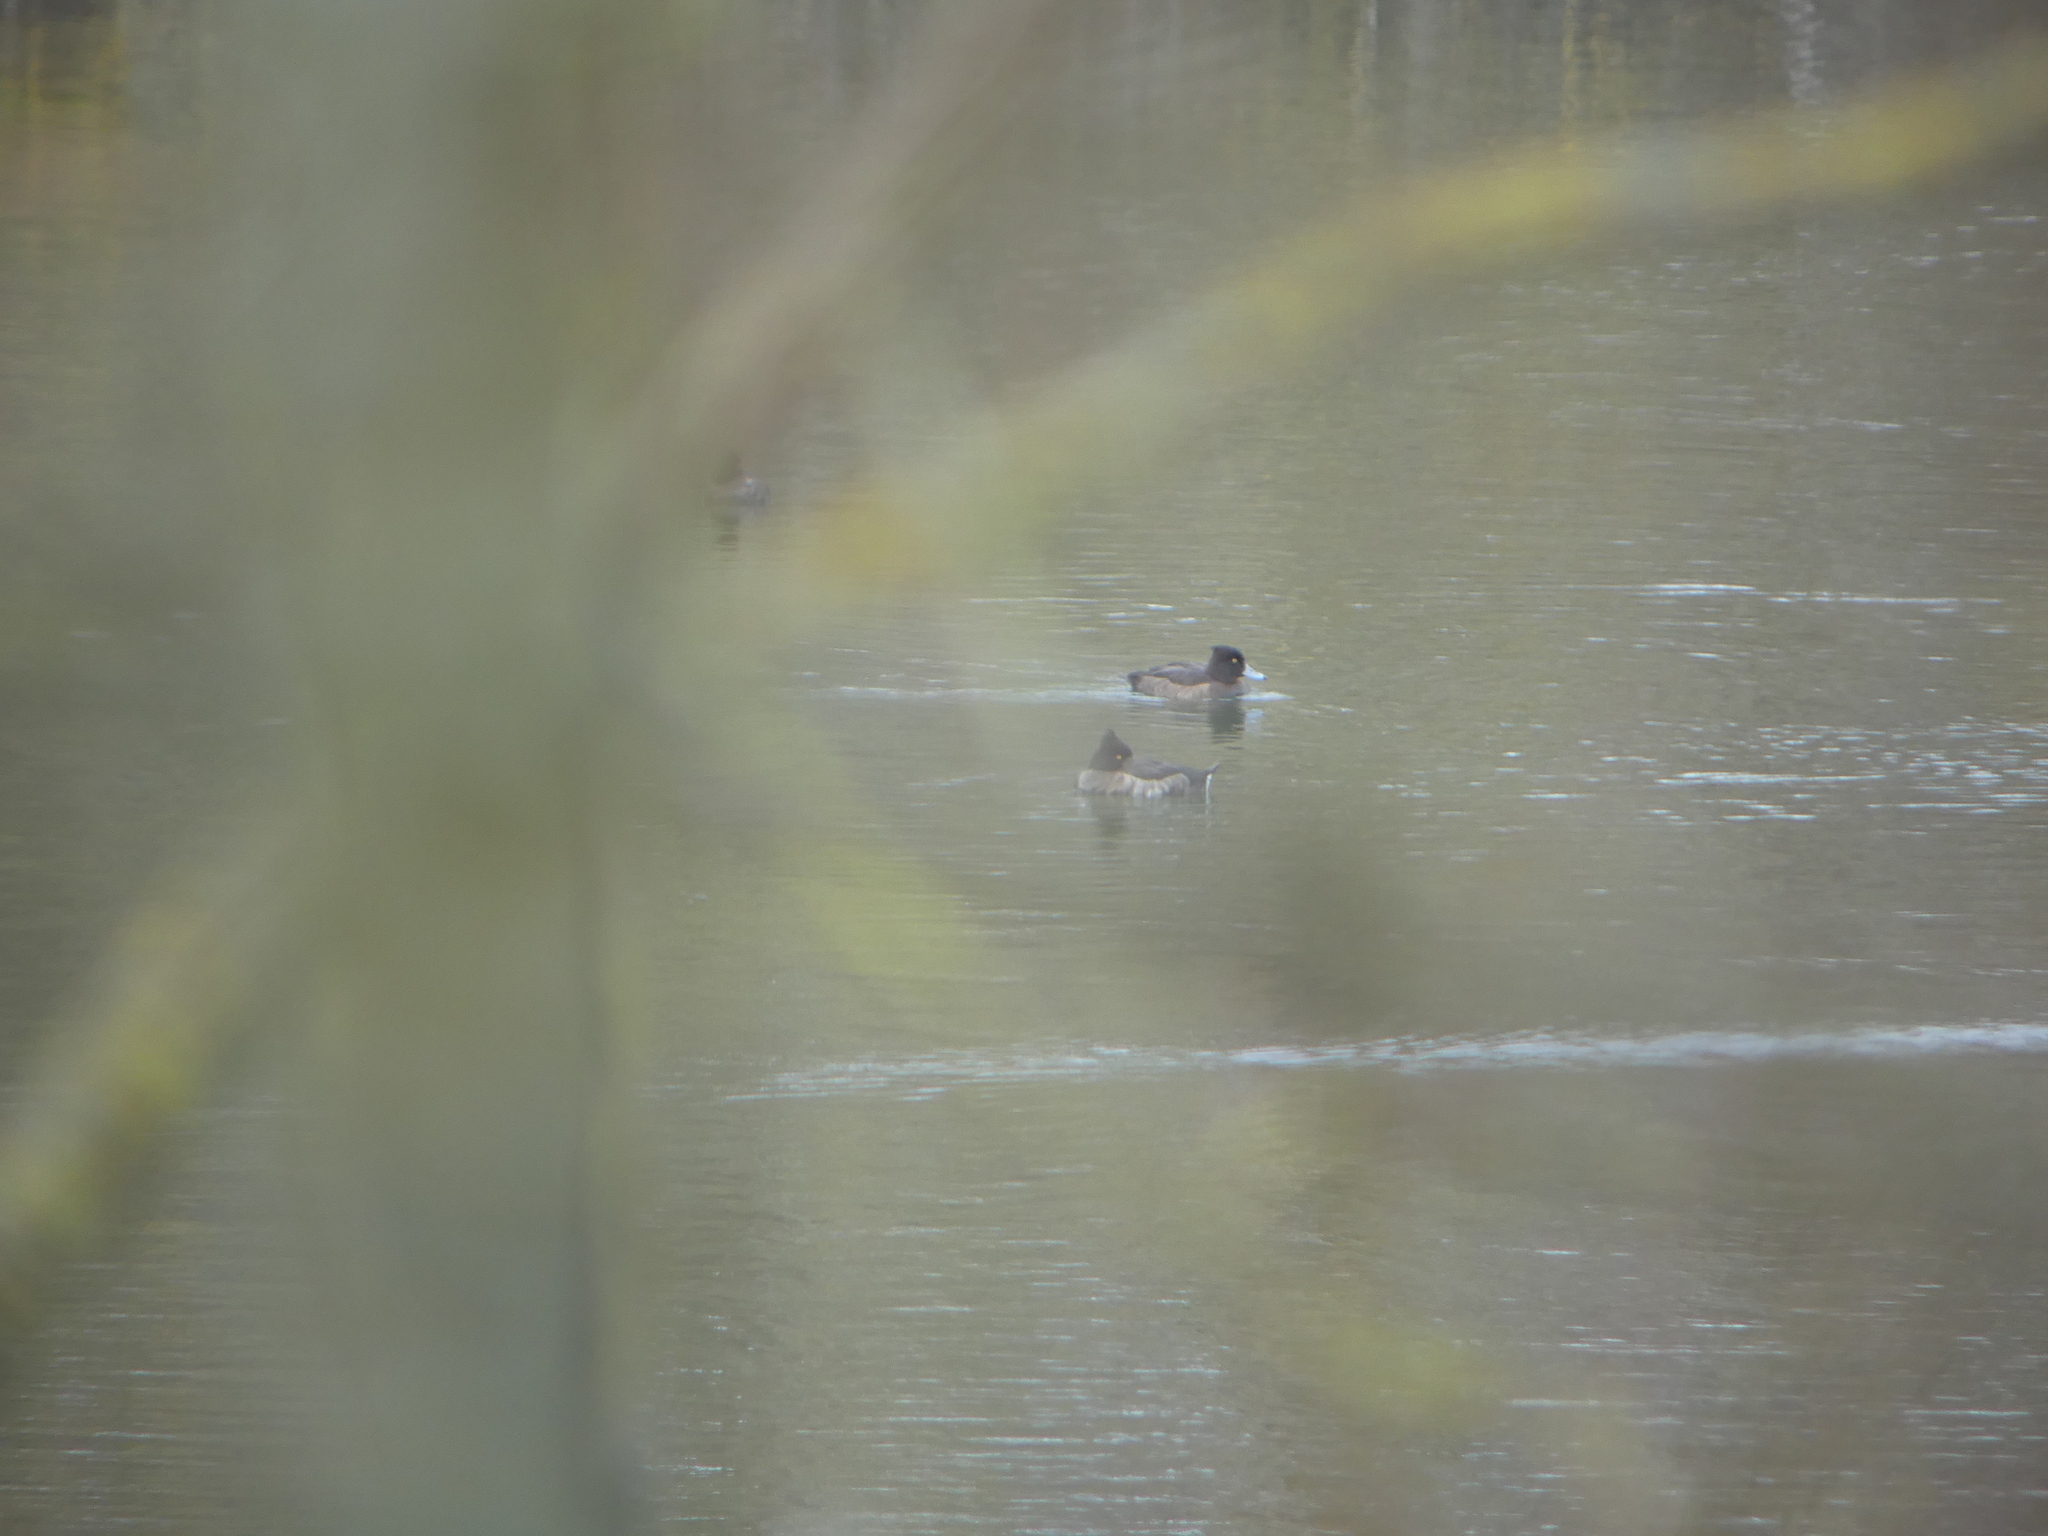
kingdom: Animalia
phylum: Chordata
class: Aves
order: Anseriformes
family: Anatidae
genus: Aythya
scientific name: Aythya fuligula
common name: Tufted duck
